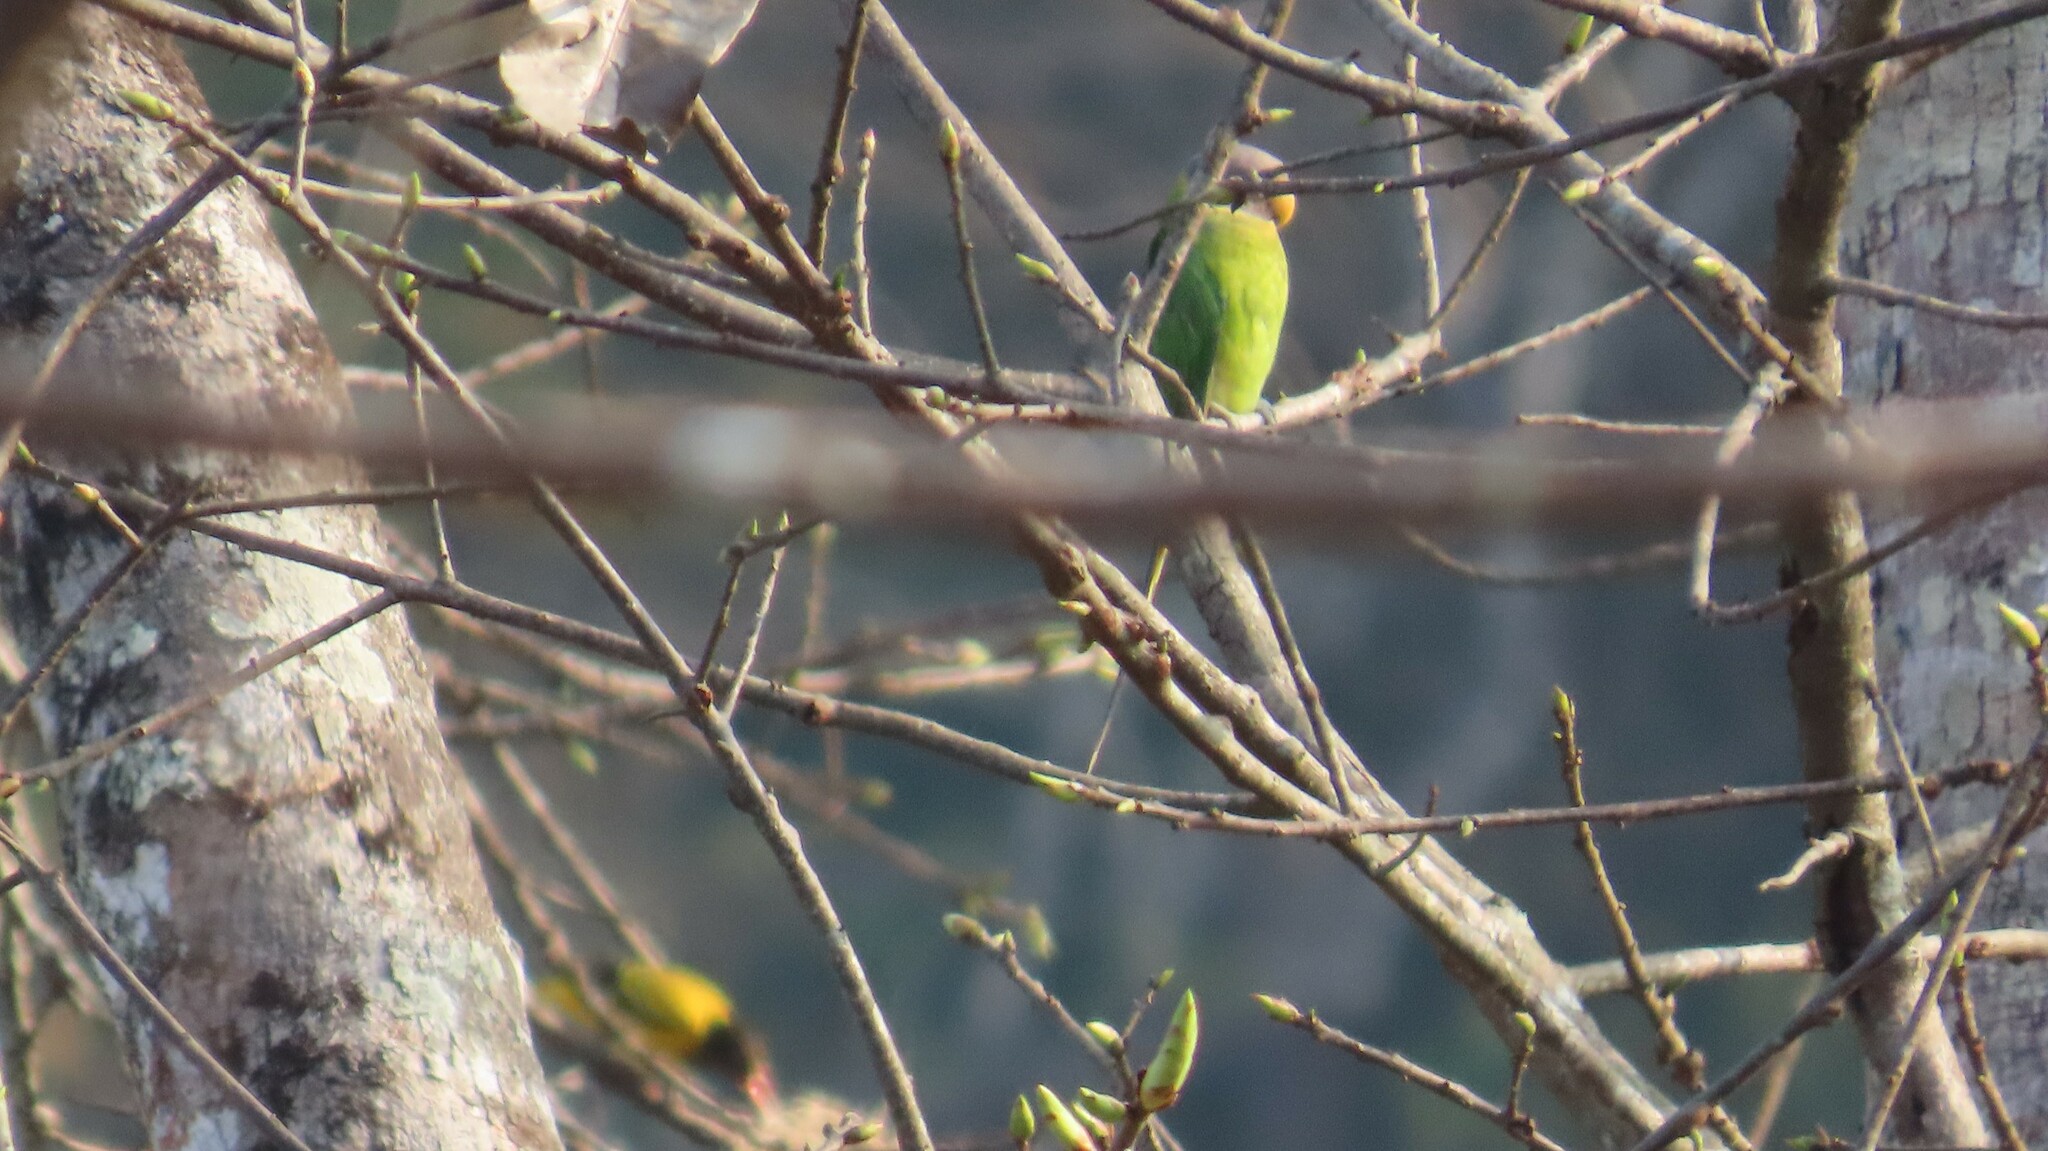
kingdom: Animalia
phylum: Chordata
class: Aves
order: Psittaciformes
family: Psittacidae
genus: Psittacula
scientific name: Psittacula cyanocephala
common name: Plum-headed parakeet
